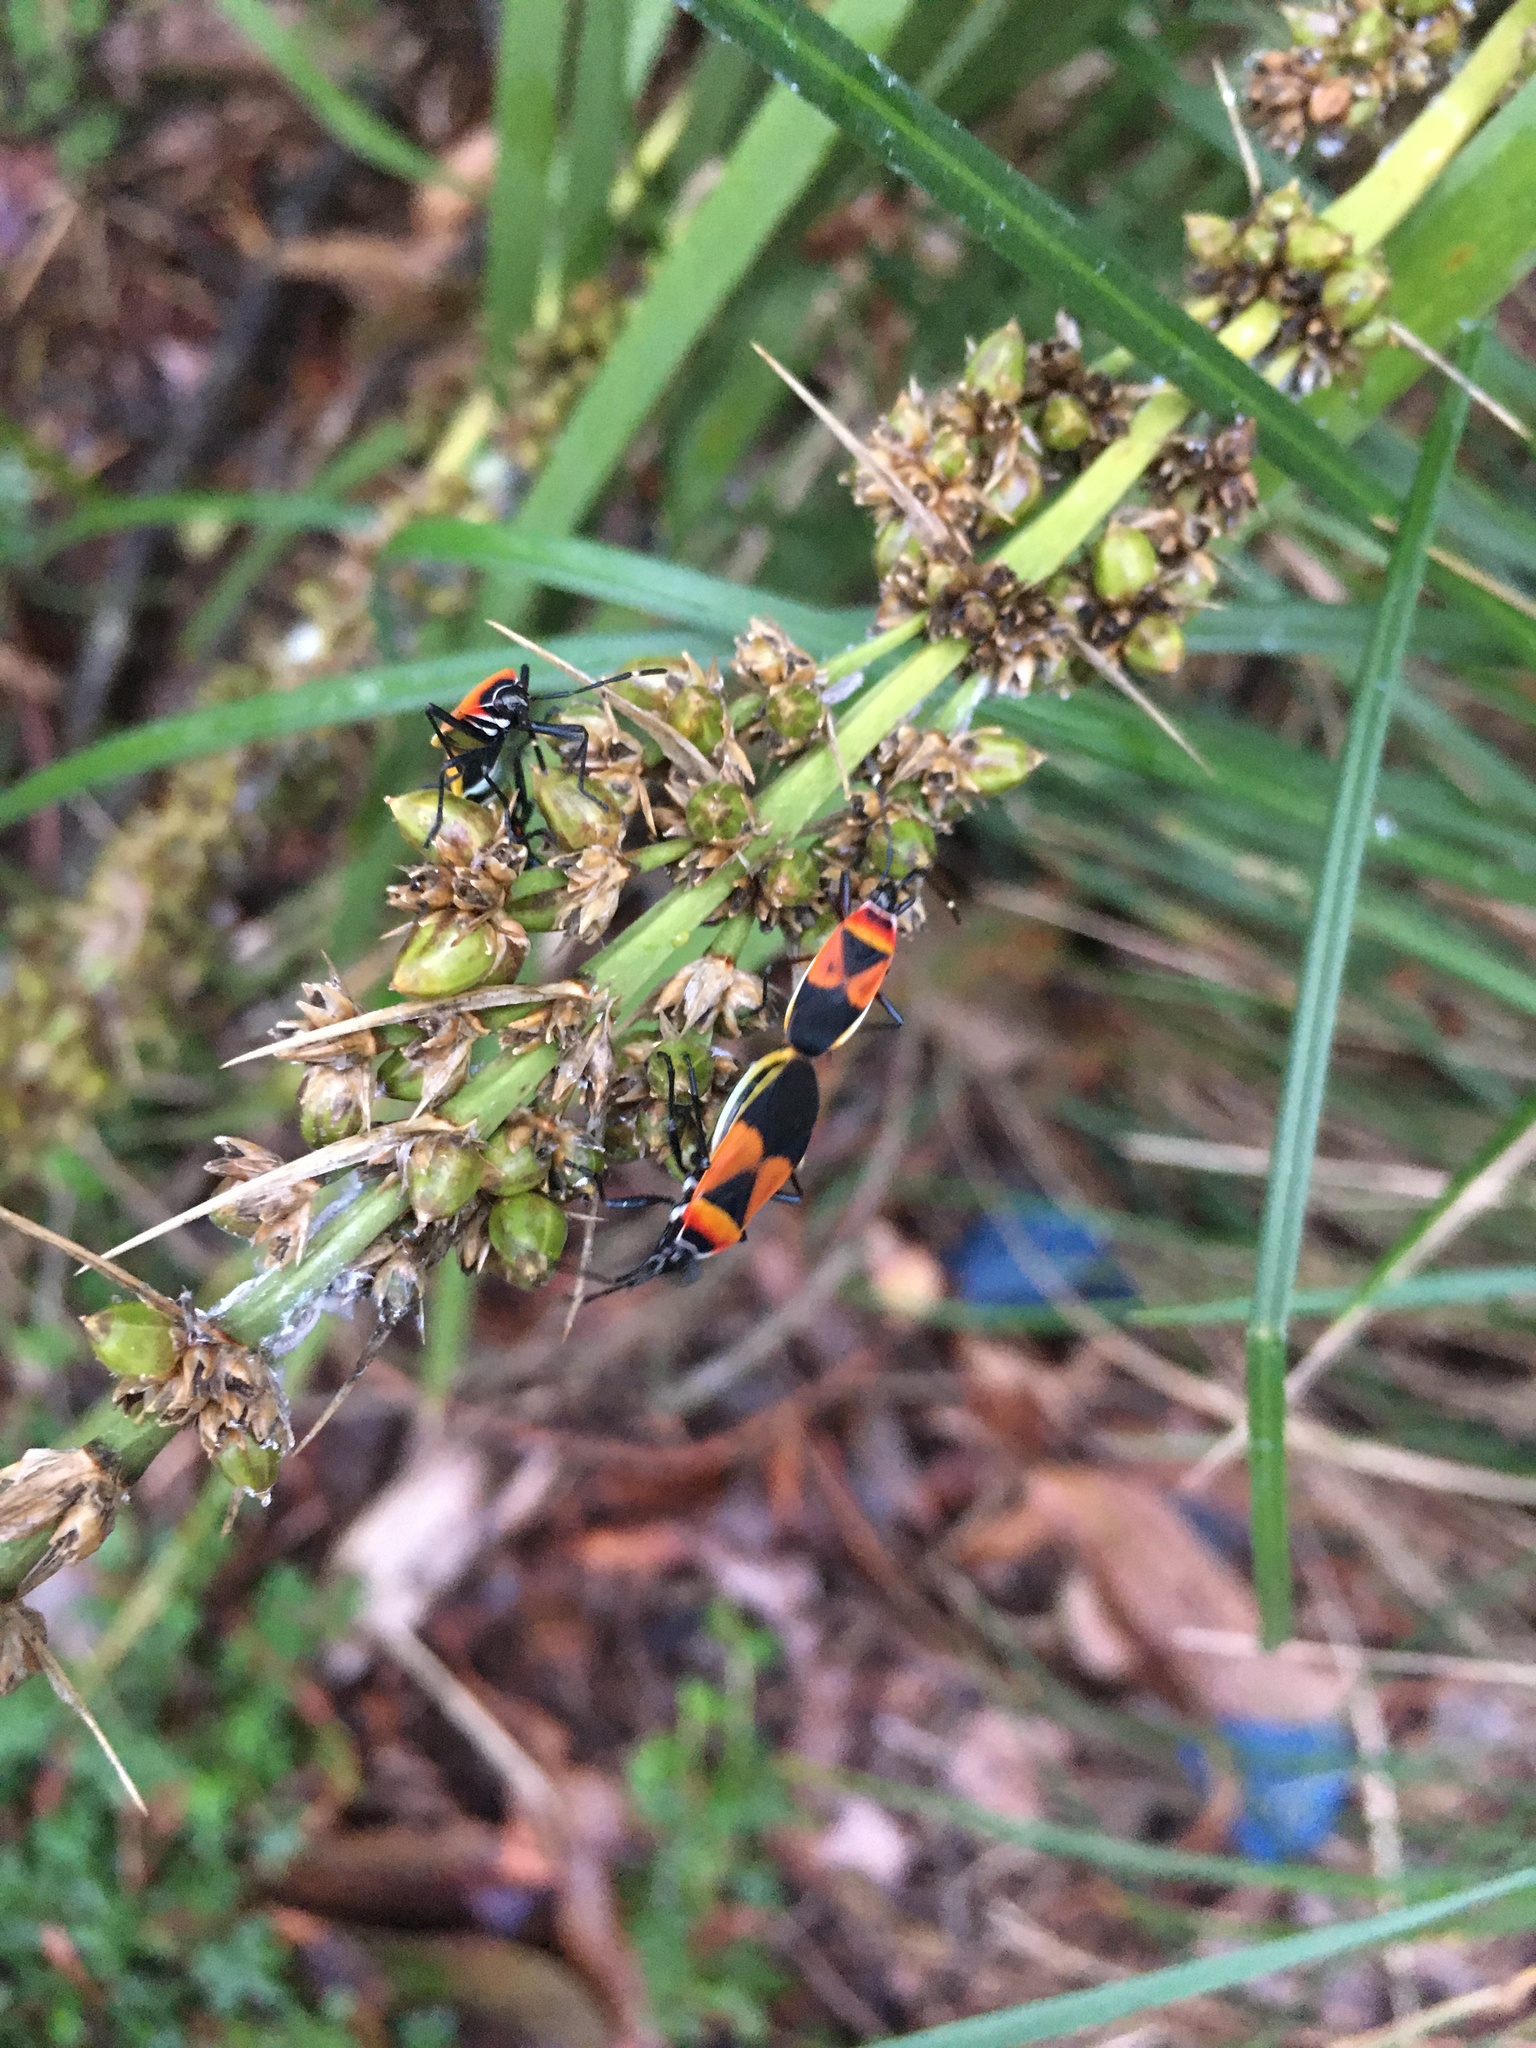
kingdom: Animalia
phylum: Arthropoda
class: Insecta
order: Hemiptera
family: Pyrrhocoridae
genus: Dindymus
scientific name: Dindymus
